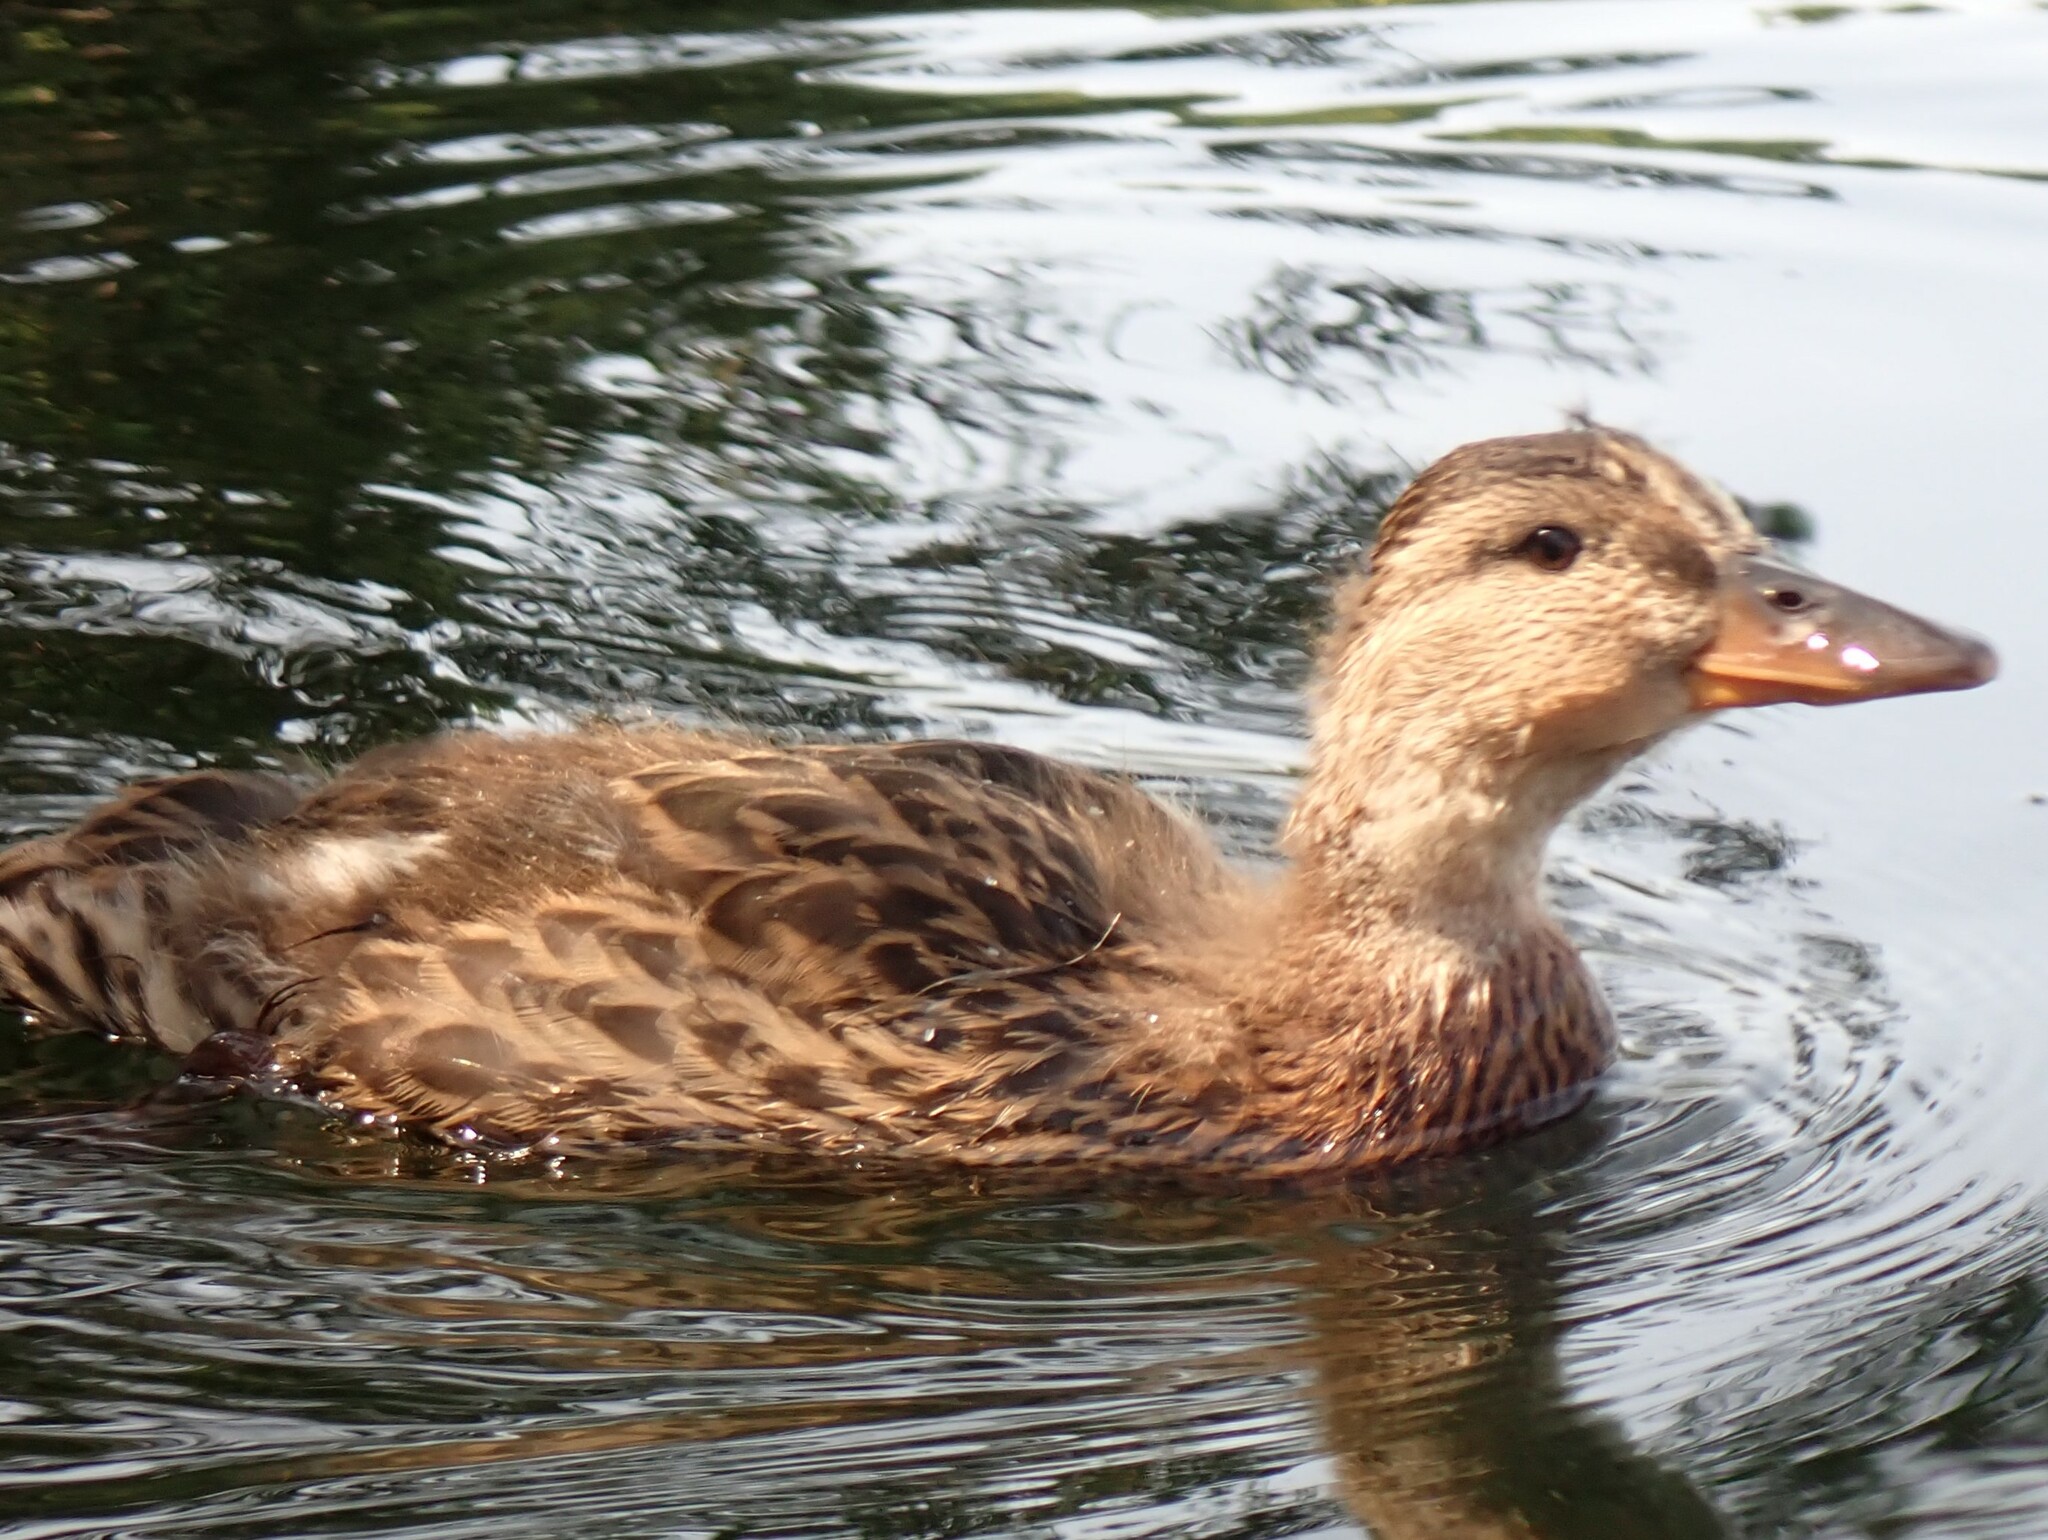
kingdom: Animalia
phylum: Chordata
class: Aves
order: Anseriformes
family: Anatidae
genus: Anas
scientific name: Anas platyrhynchos
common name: Mallard
